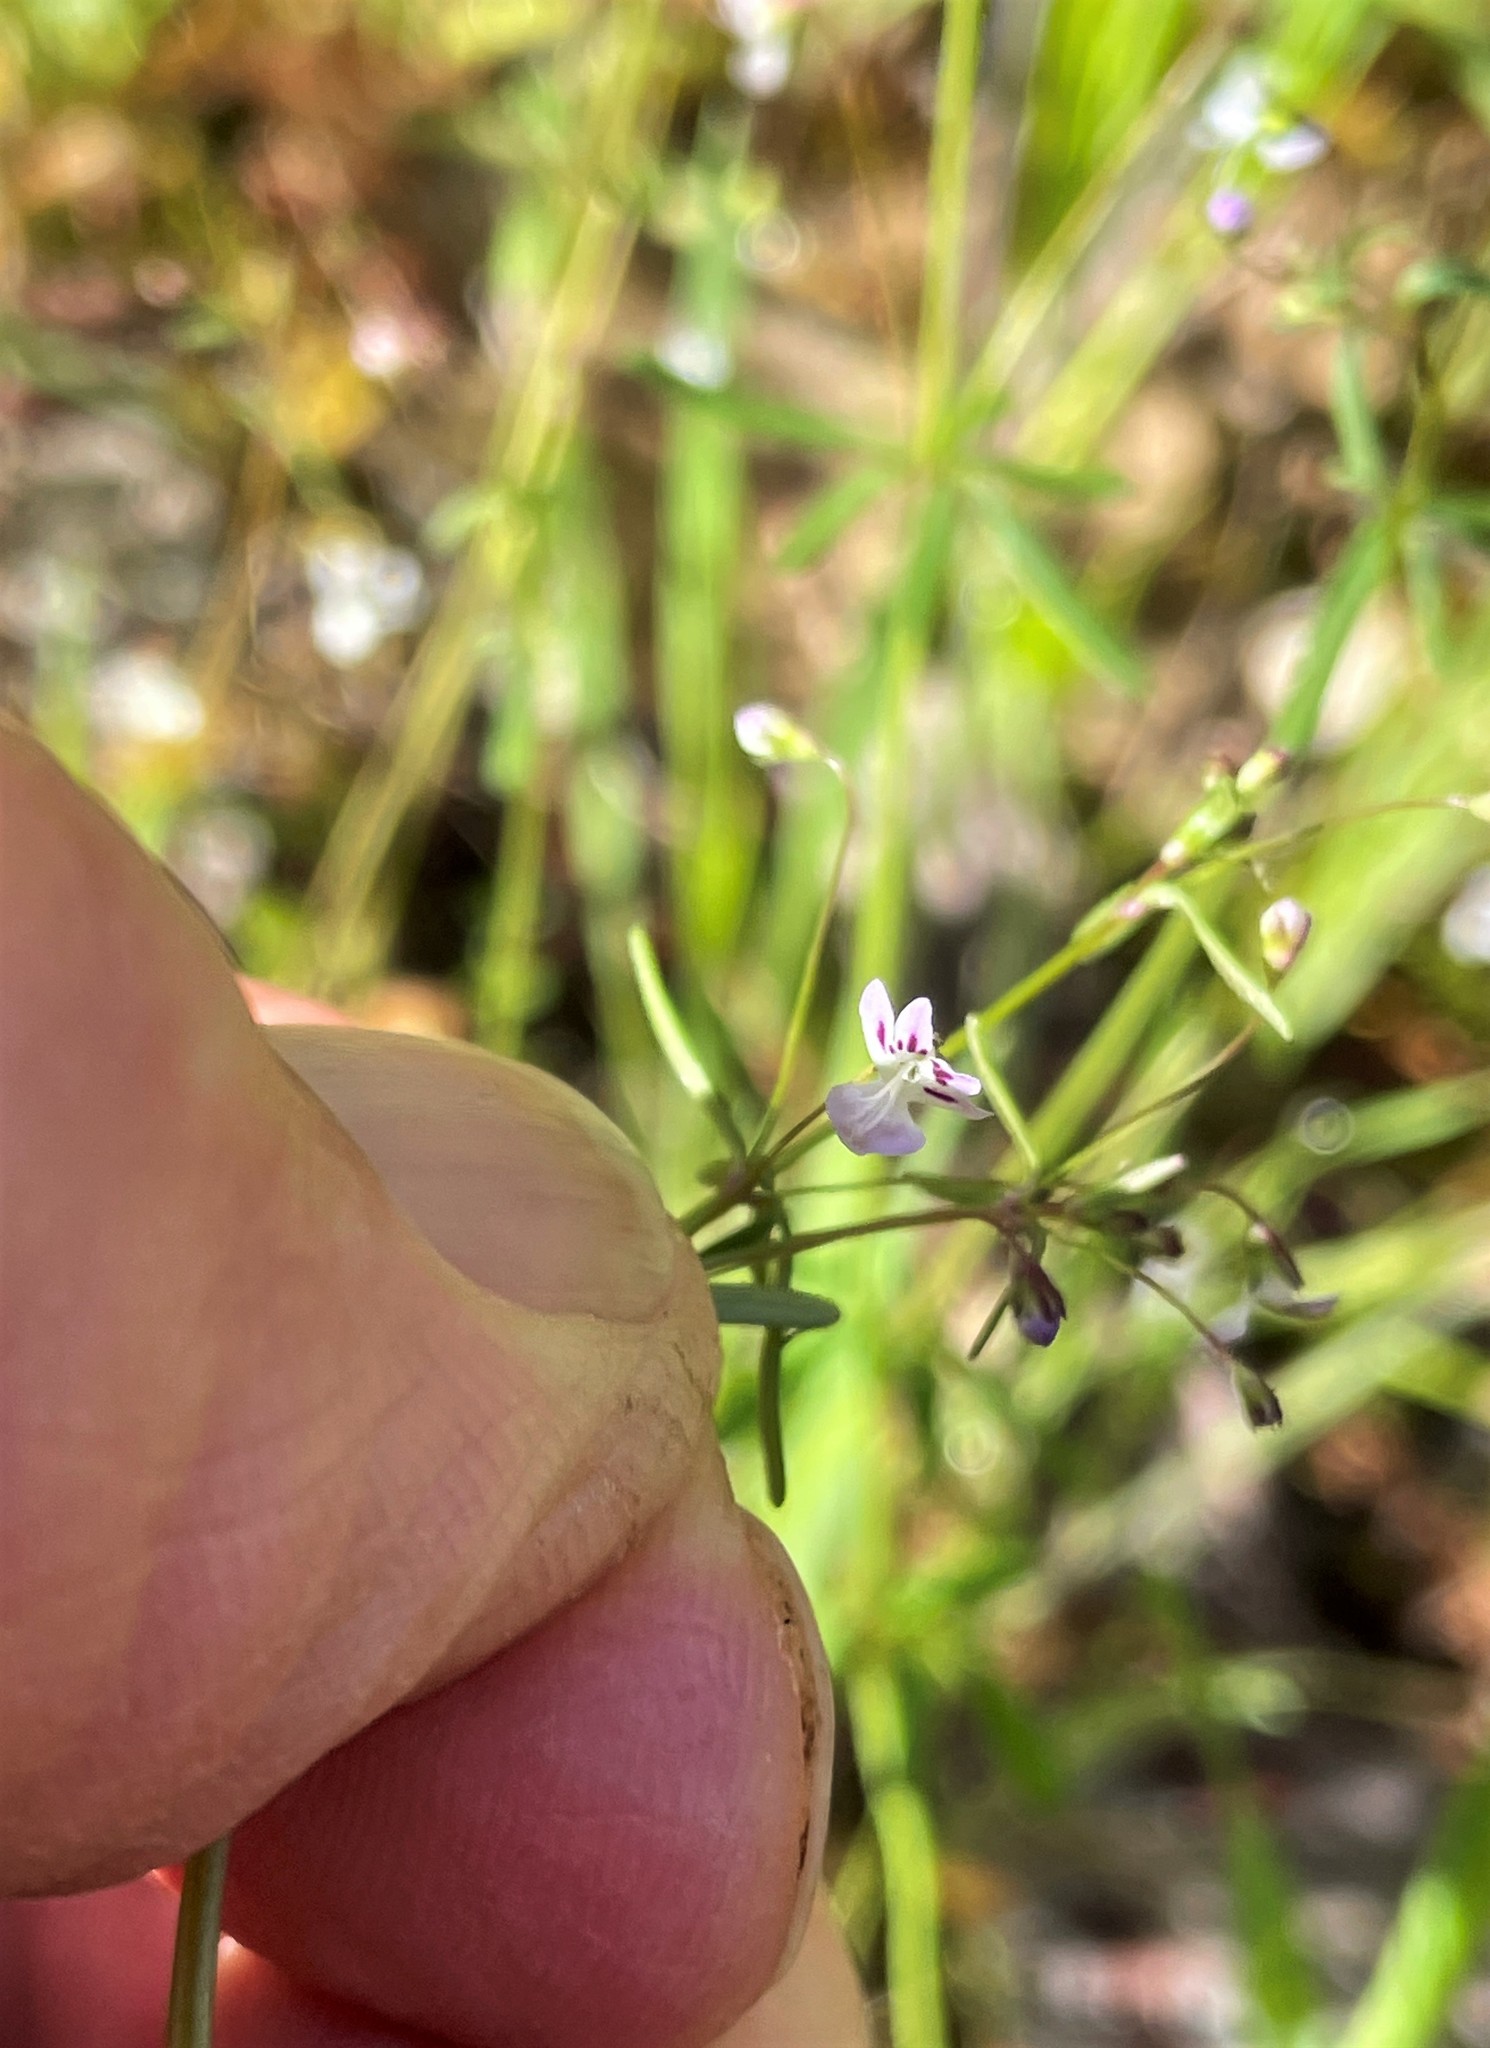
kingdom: Plantae
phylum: Tracheophyta
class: Magnoliopsida
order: Lamiales
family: Plantaginaceae
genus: Tonella
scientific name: Tonella tenella
